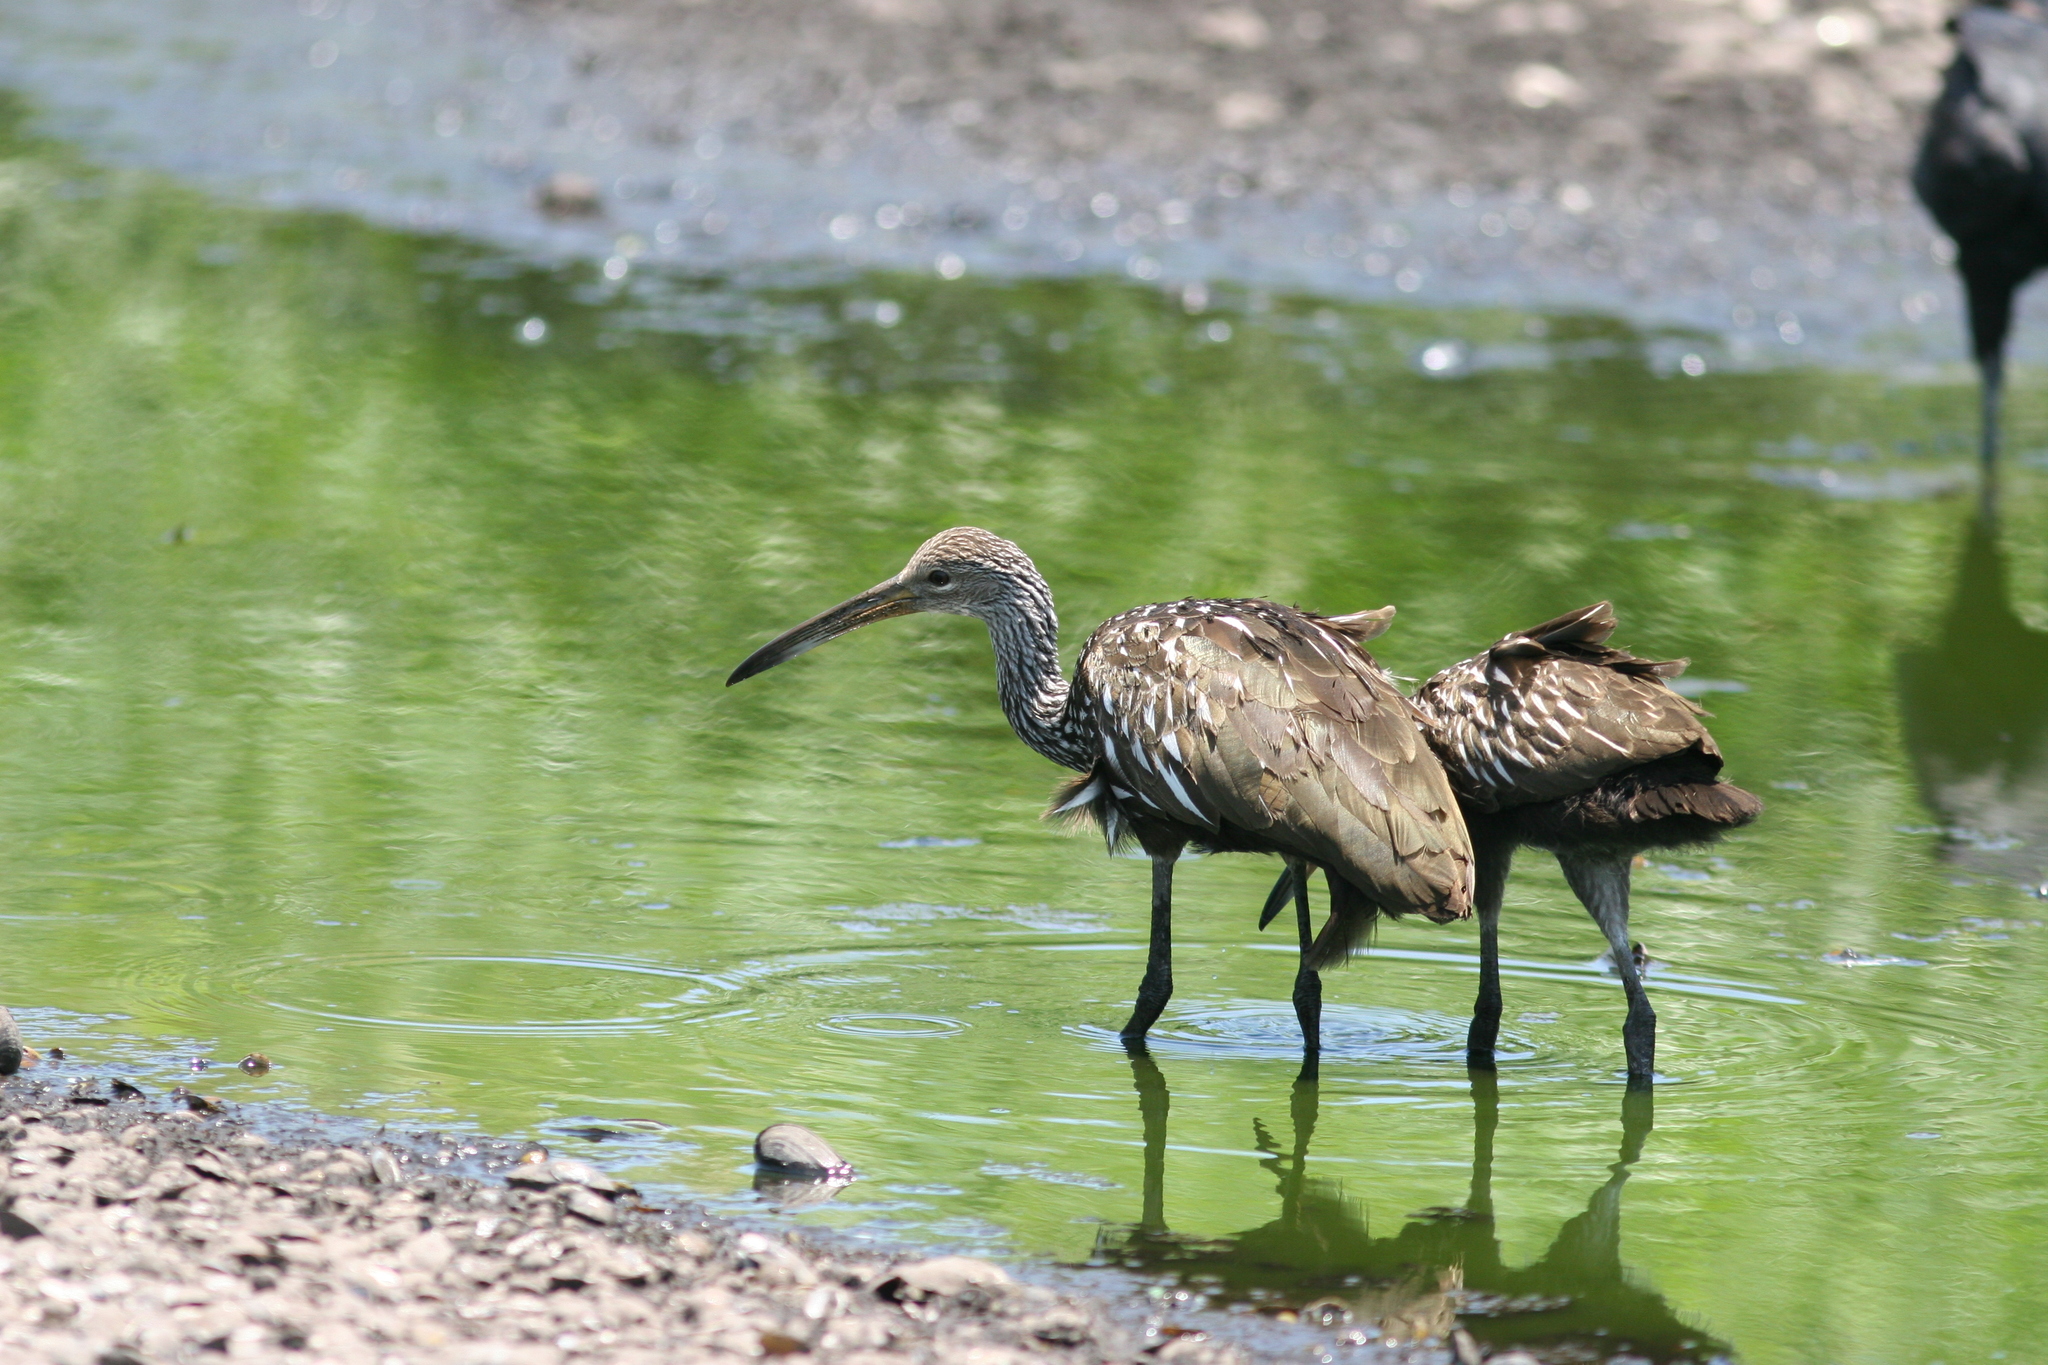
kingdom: Animalia
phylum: Chordata
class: Aves
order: Gruiformes
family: Aramidae
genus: Aramus
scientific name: Aramus guarauna
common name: Limpkin
